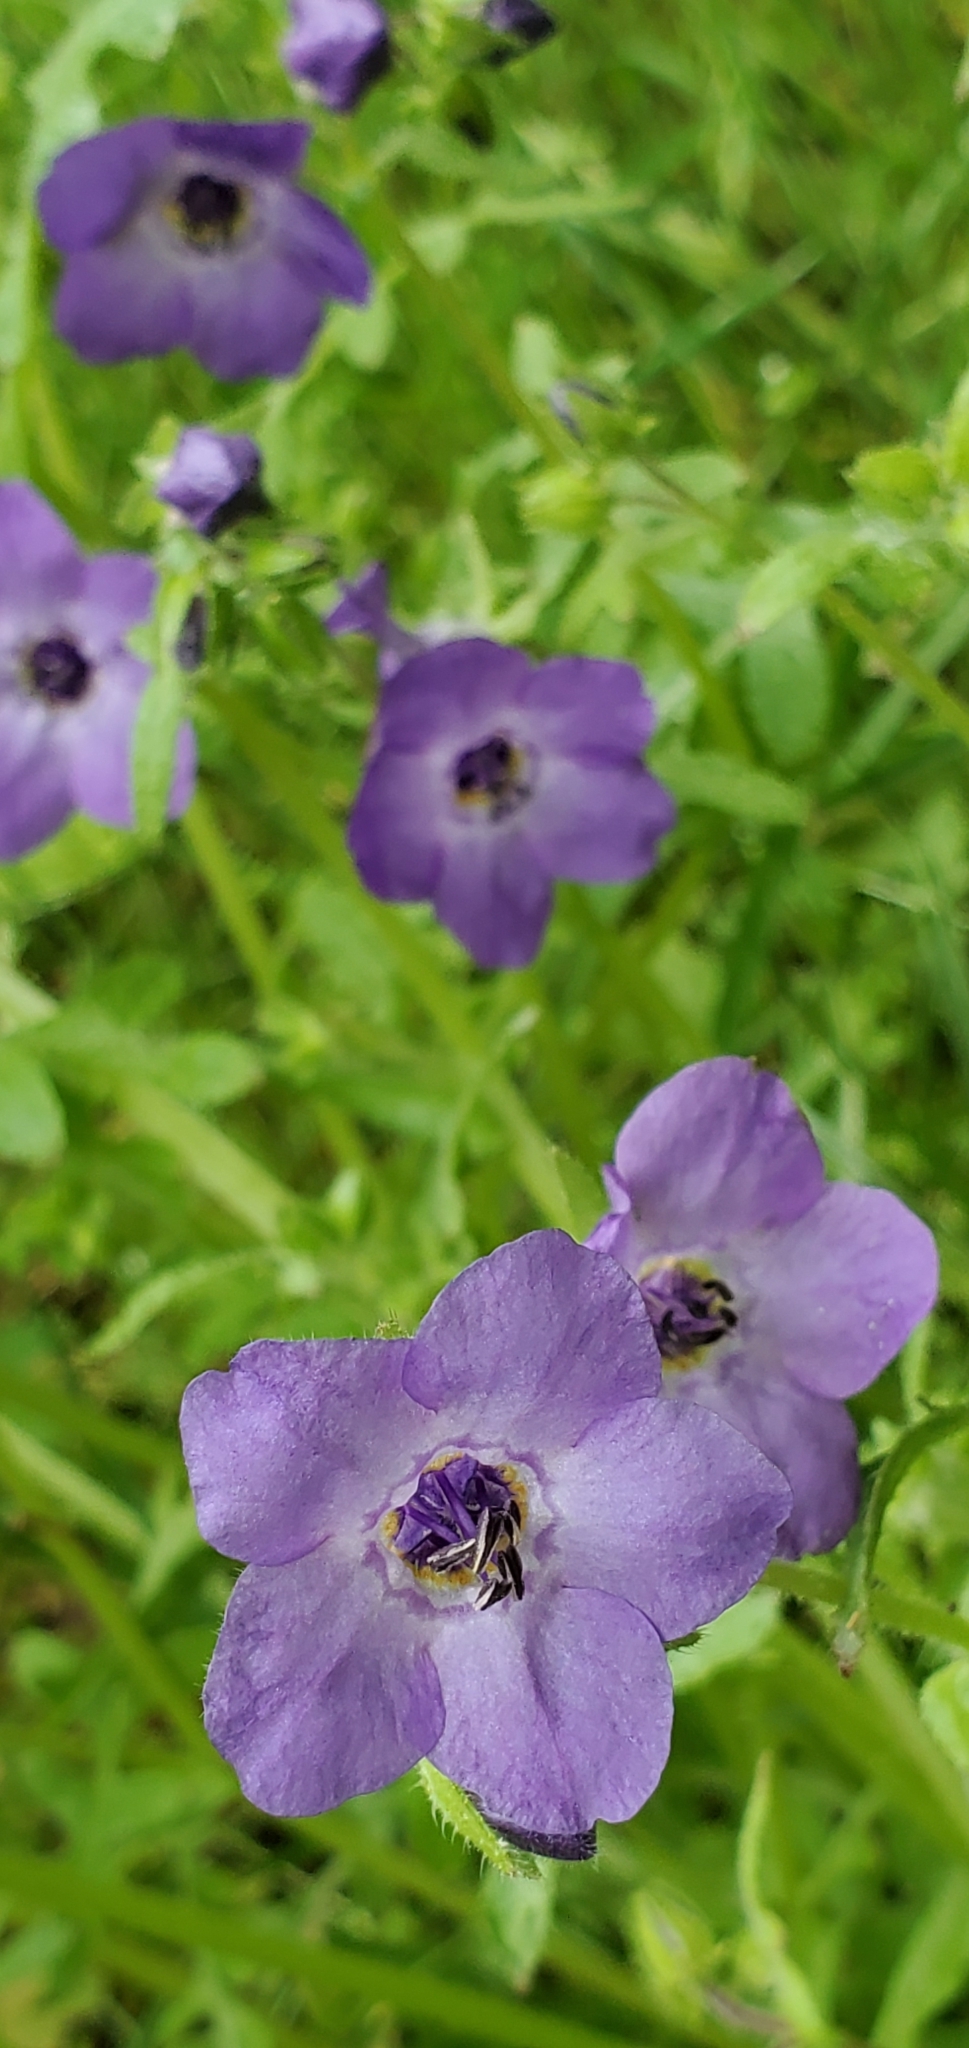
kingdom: Plantae
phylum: Tracheophyta
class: Magnoliopsida
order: Boraginales
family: Hydrophyllaceae
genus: Pholistoma
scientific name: Pholistoma auritum
